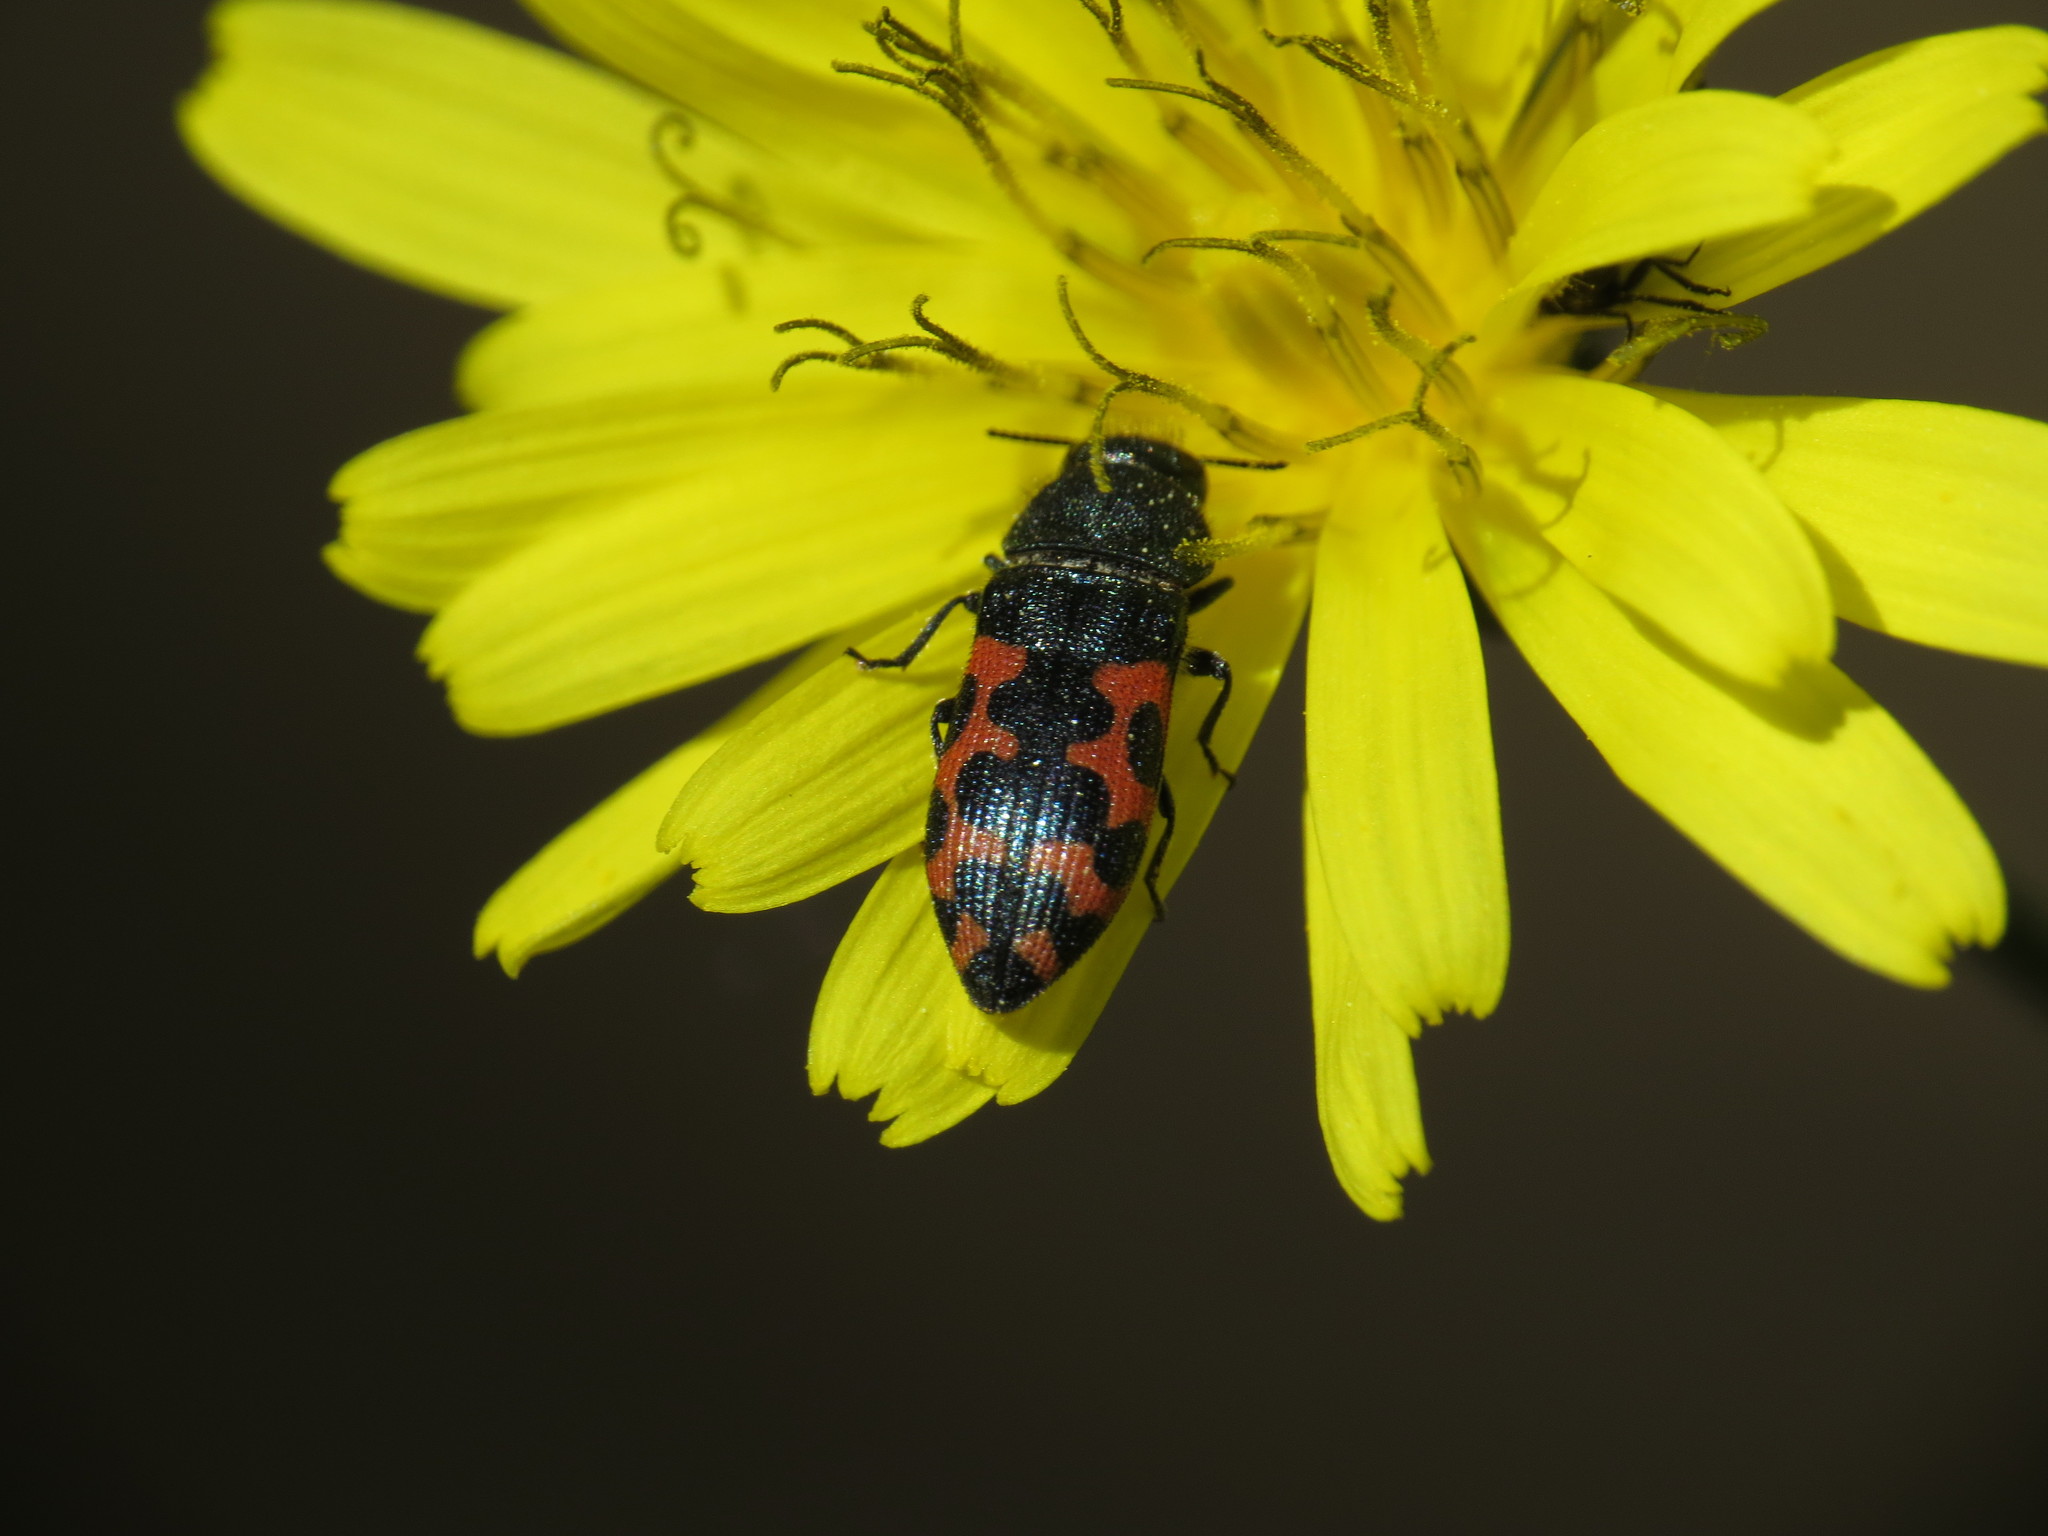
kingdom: Animalia
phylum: Arthropoda
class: Insecta
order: Coleoptera
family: Buprestidae
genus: Acmaeodera
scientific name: Acmaeodera ottomana
